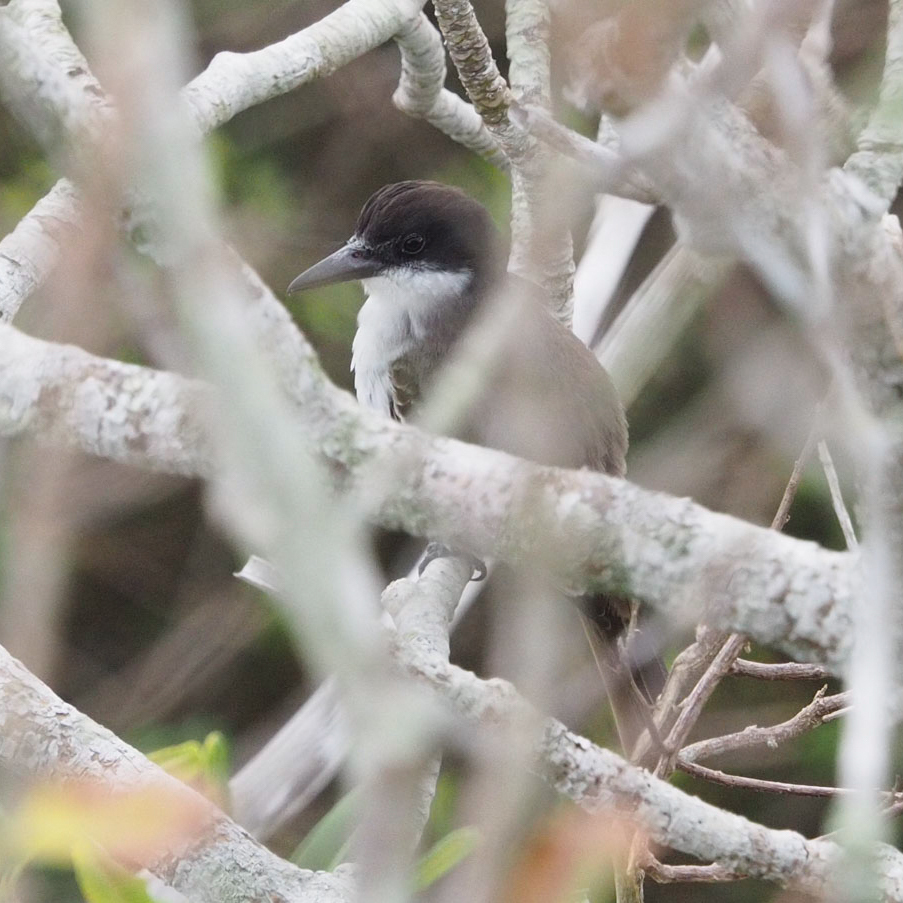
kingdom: Animalia
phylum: Chordata
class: Aves
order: Passeriformes
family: Tyrannidae
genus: Tyrannus
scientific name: Tyrannus cubensis
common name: Giant kingbird
